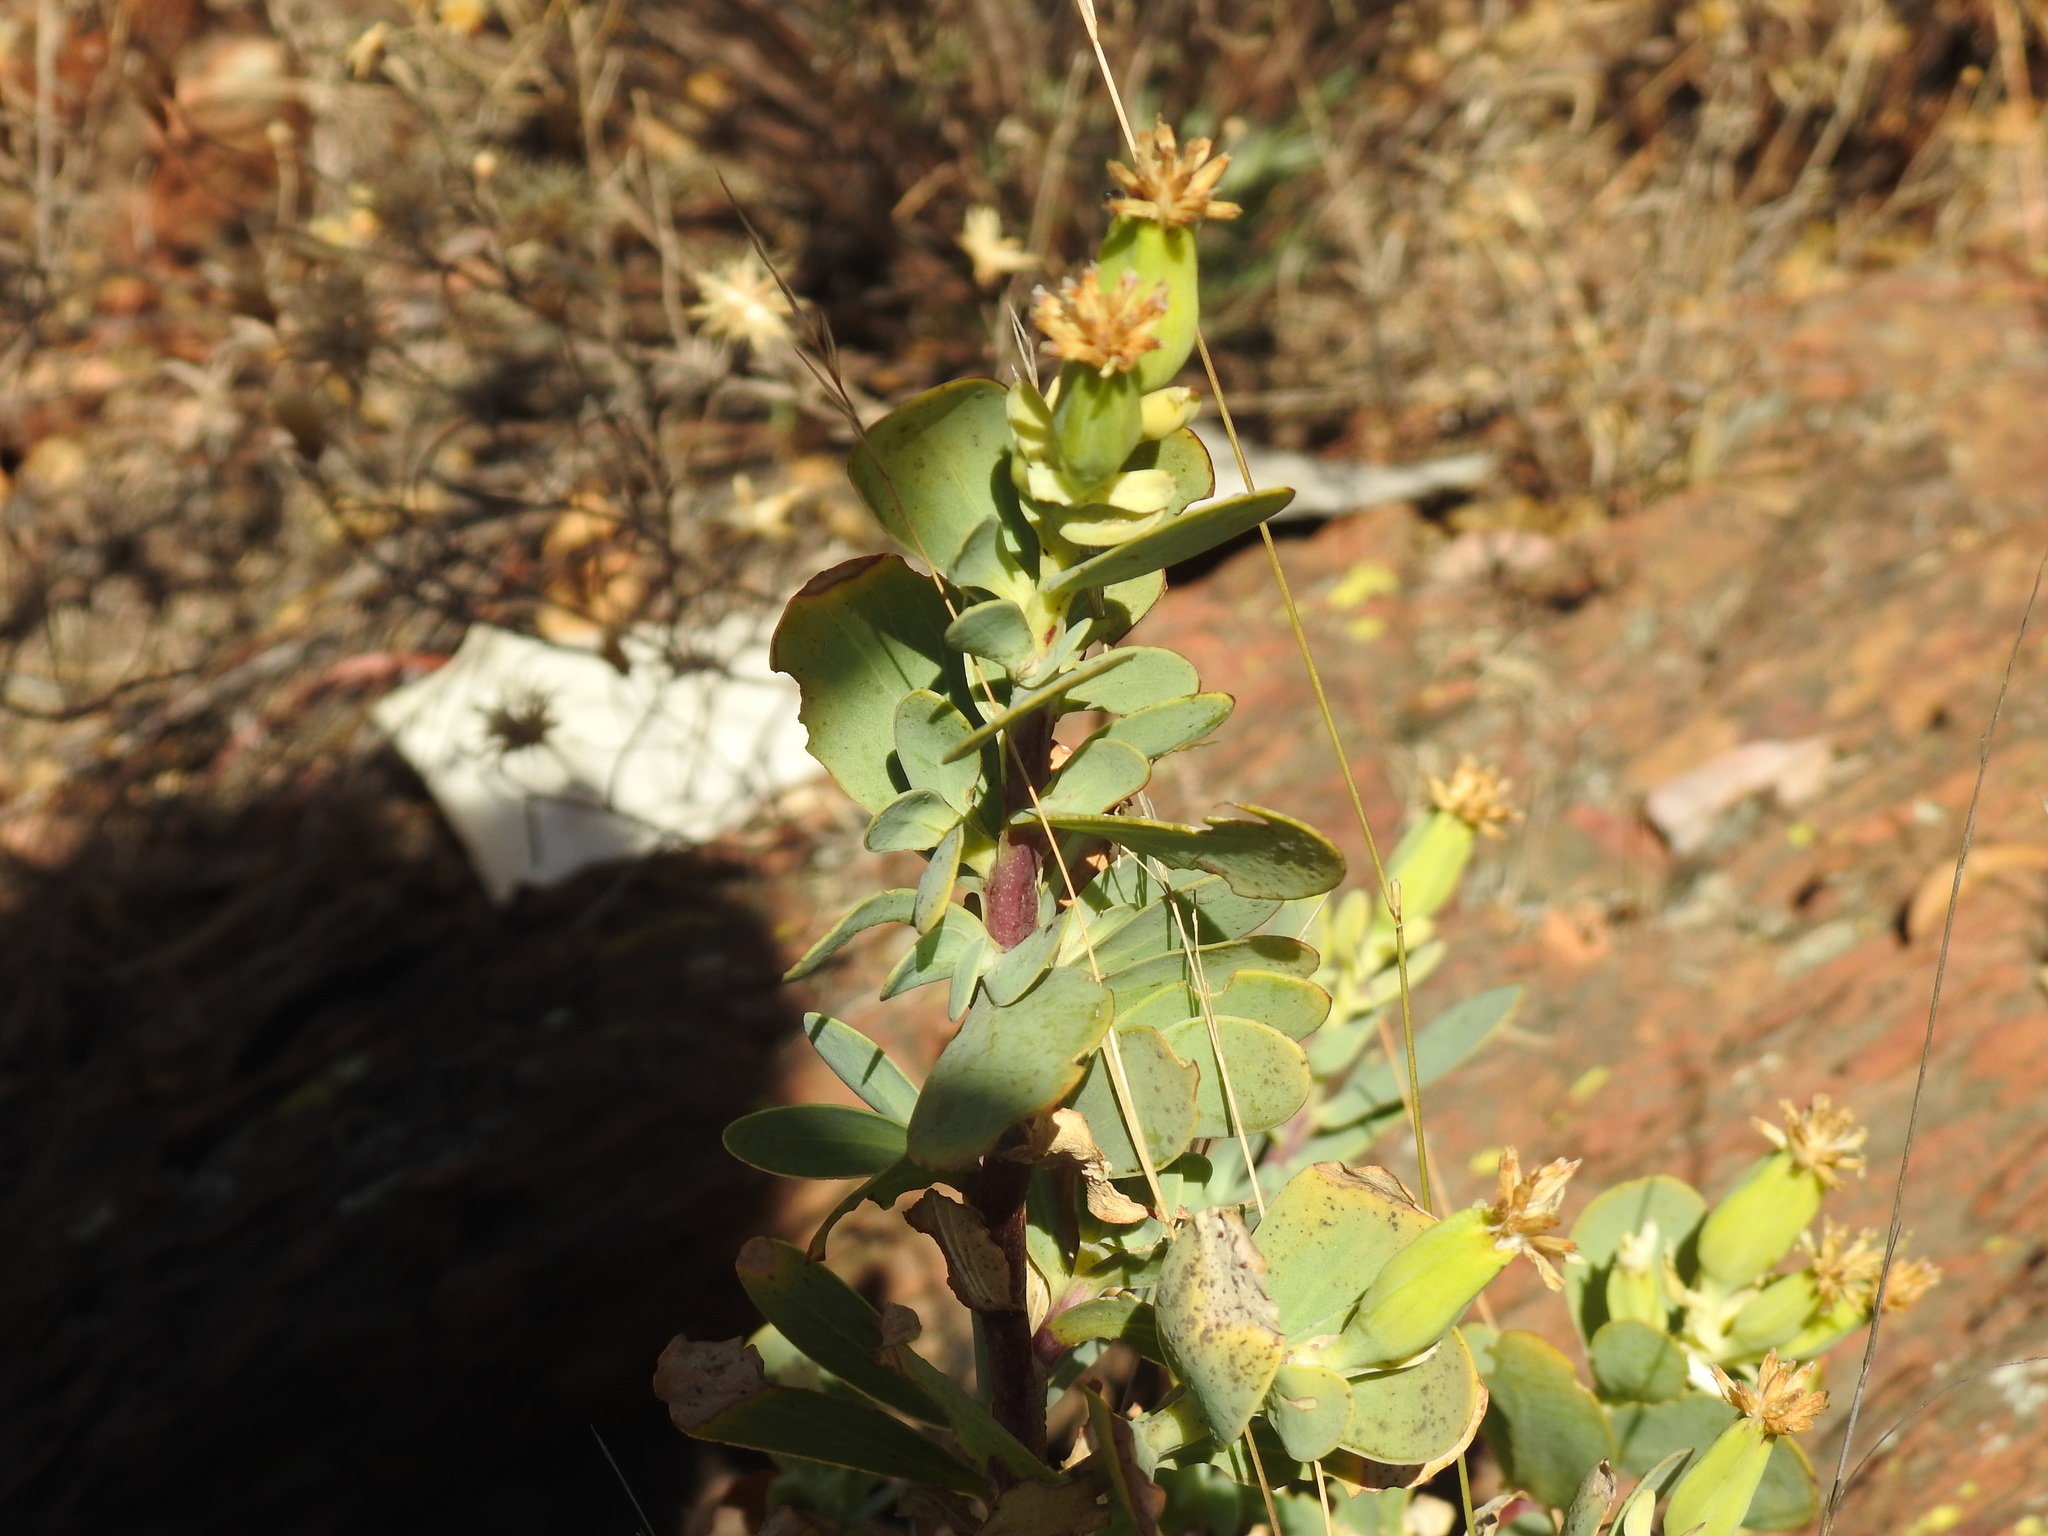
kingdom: Plantae
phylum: Tracheophyta
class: Magnoliopsida
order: Asterales
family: Asteraceae
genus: Lopholaena
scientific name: Lopholaena coriifolia
